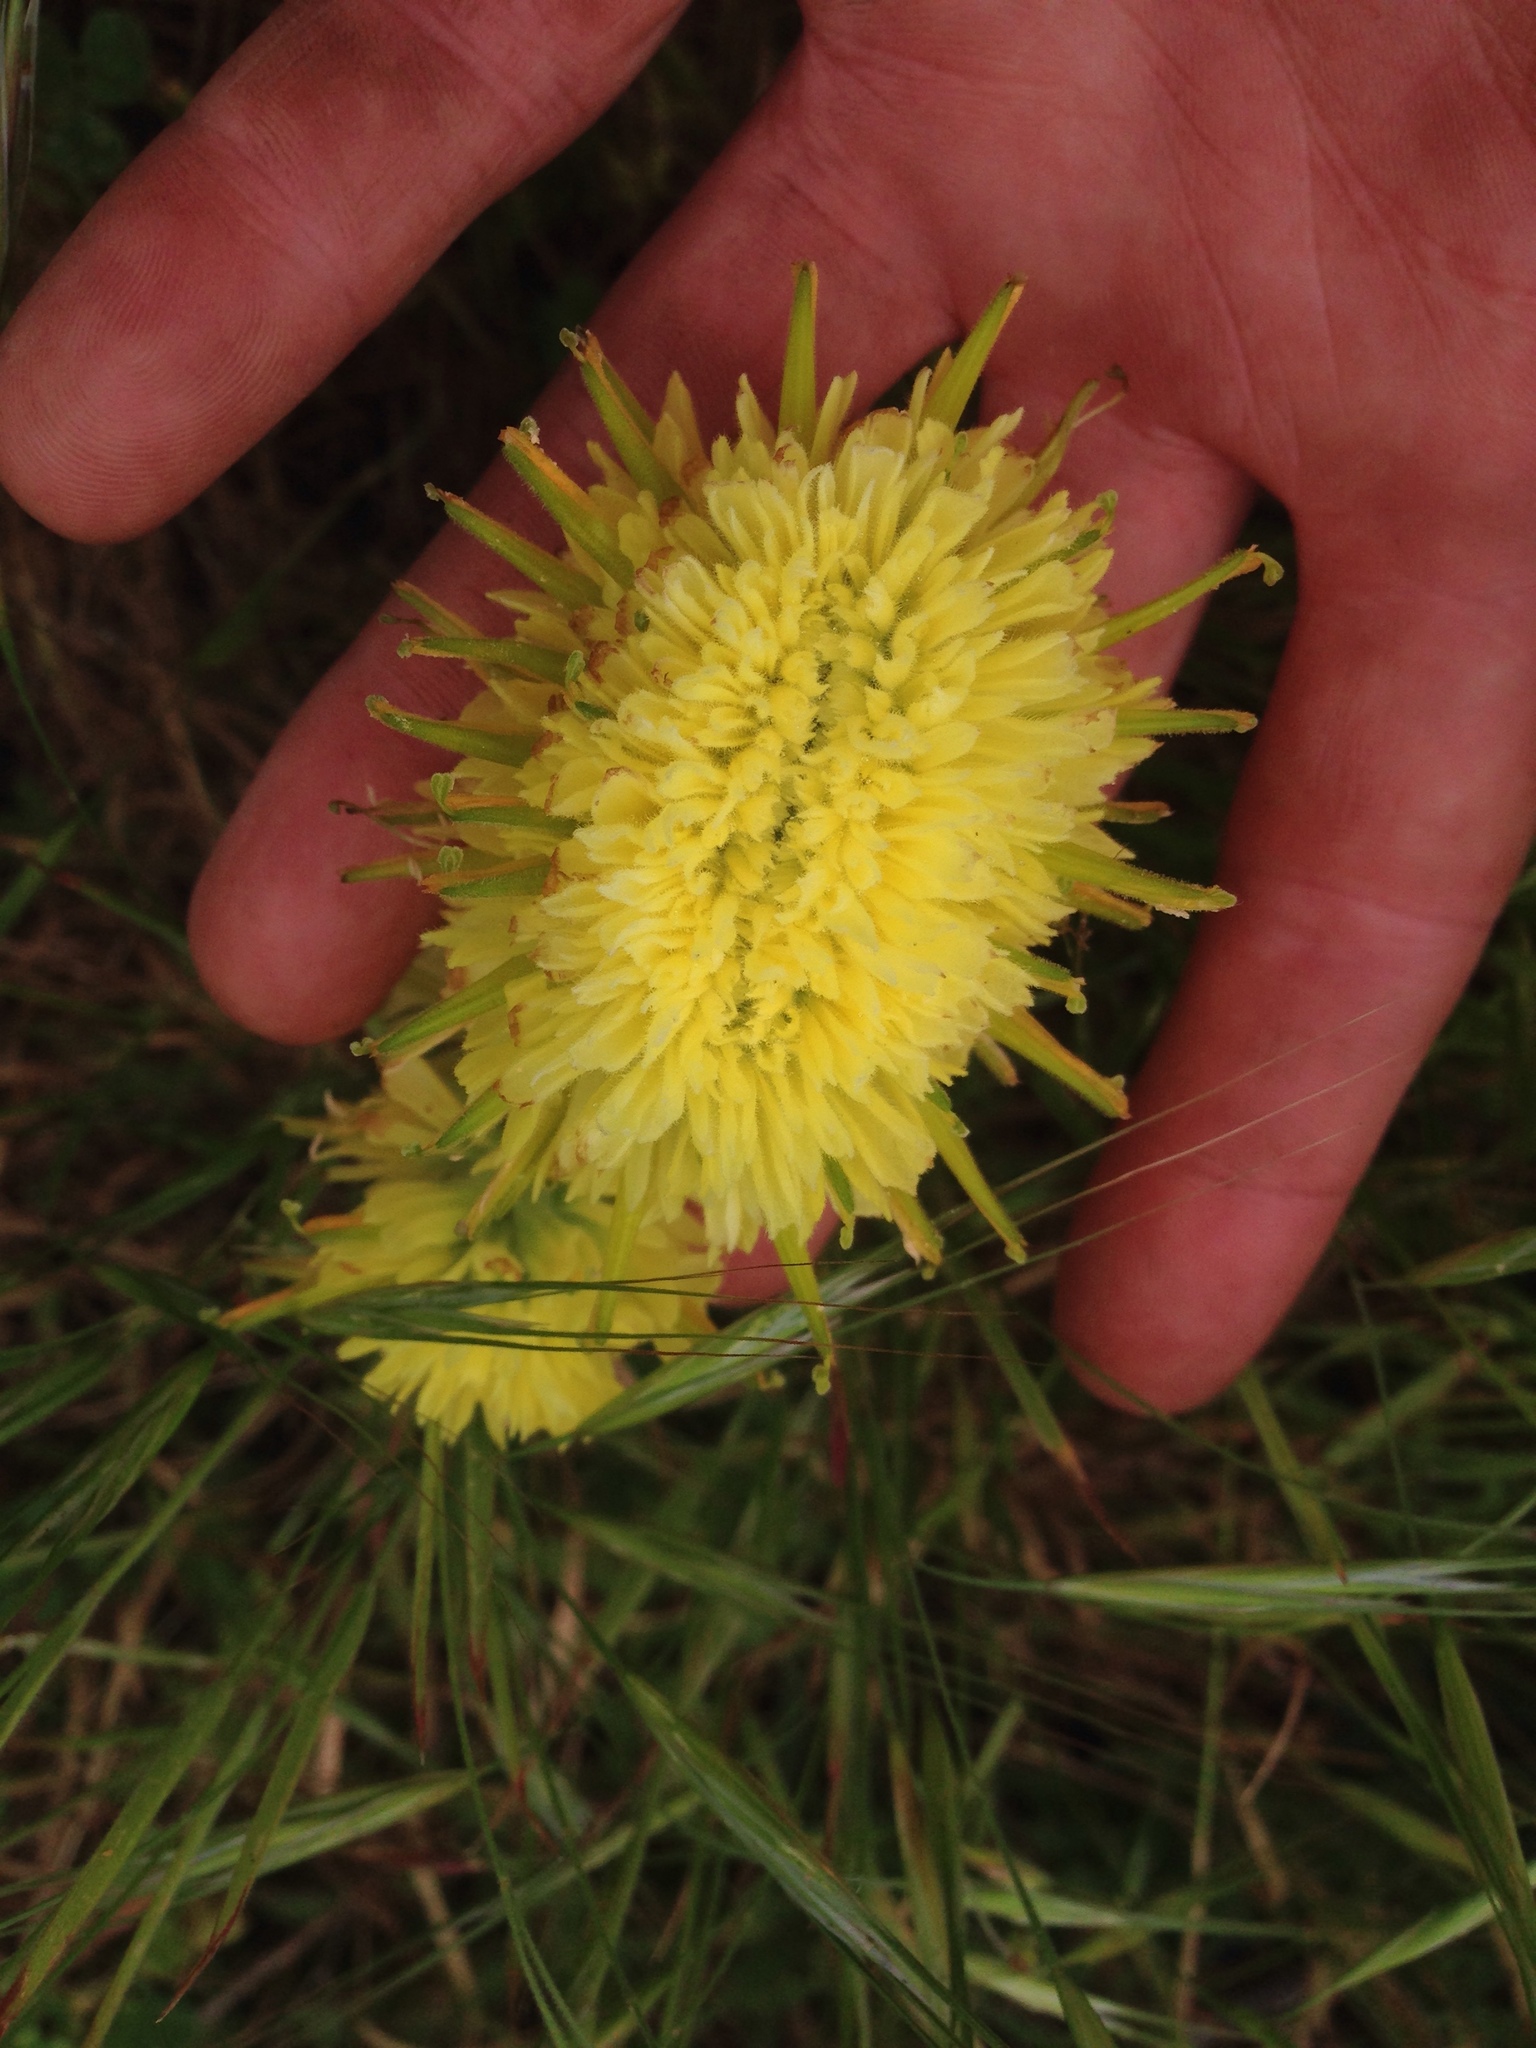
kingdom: Plantae
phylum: Tracheophyta
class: Magnoliopsida
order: Lamiales
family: Orobanchaceae
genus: Castilleja
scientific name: Castilleja affinis
